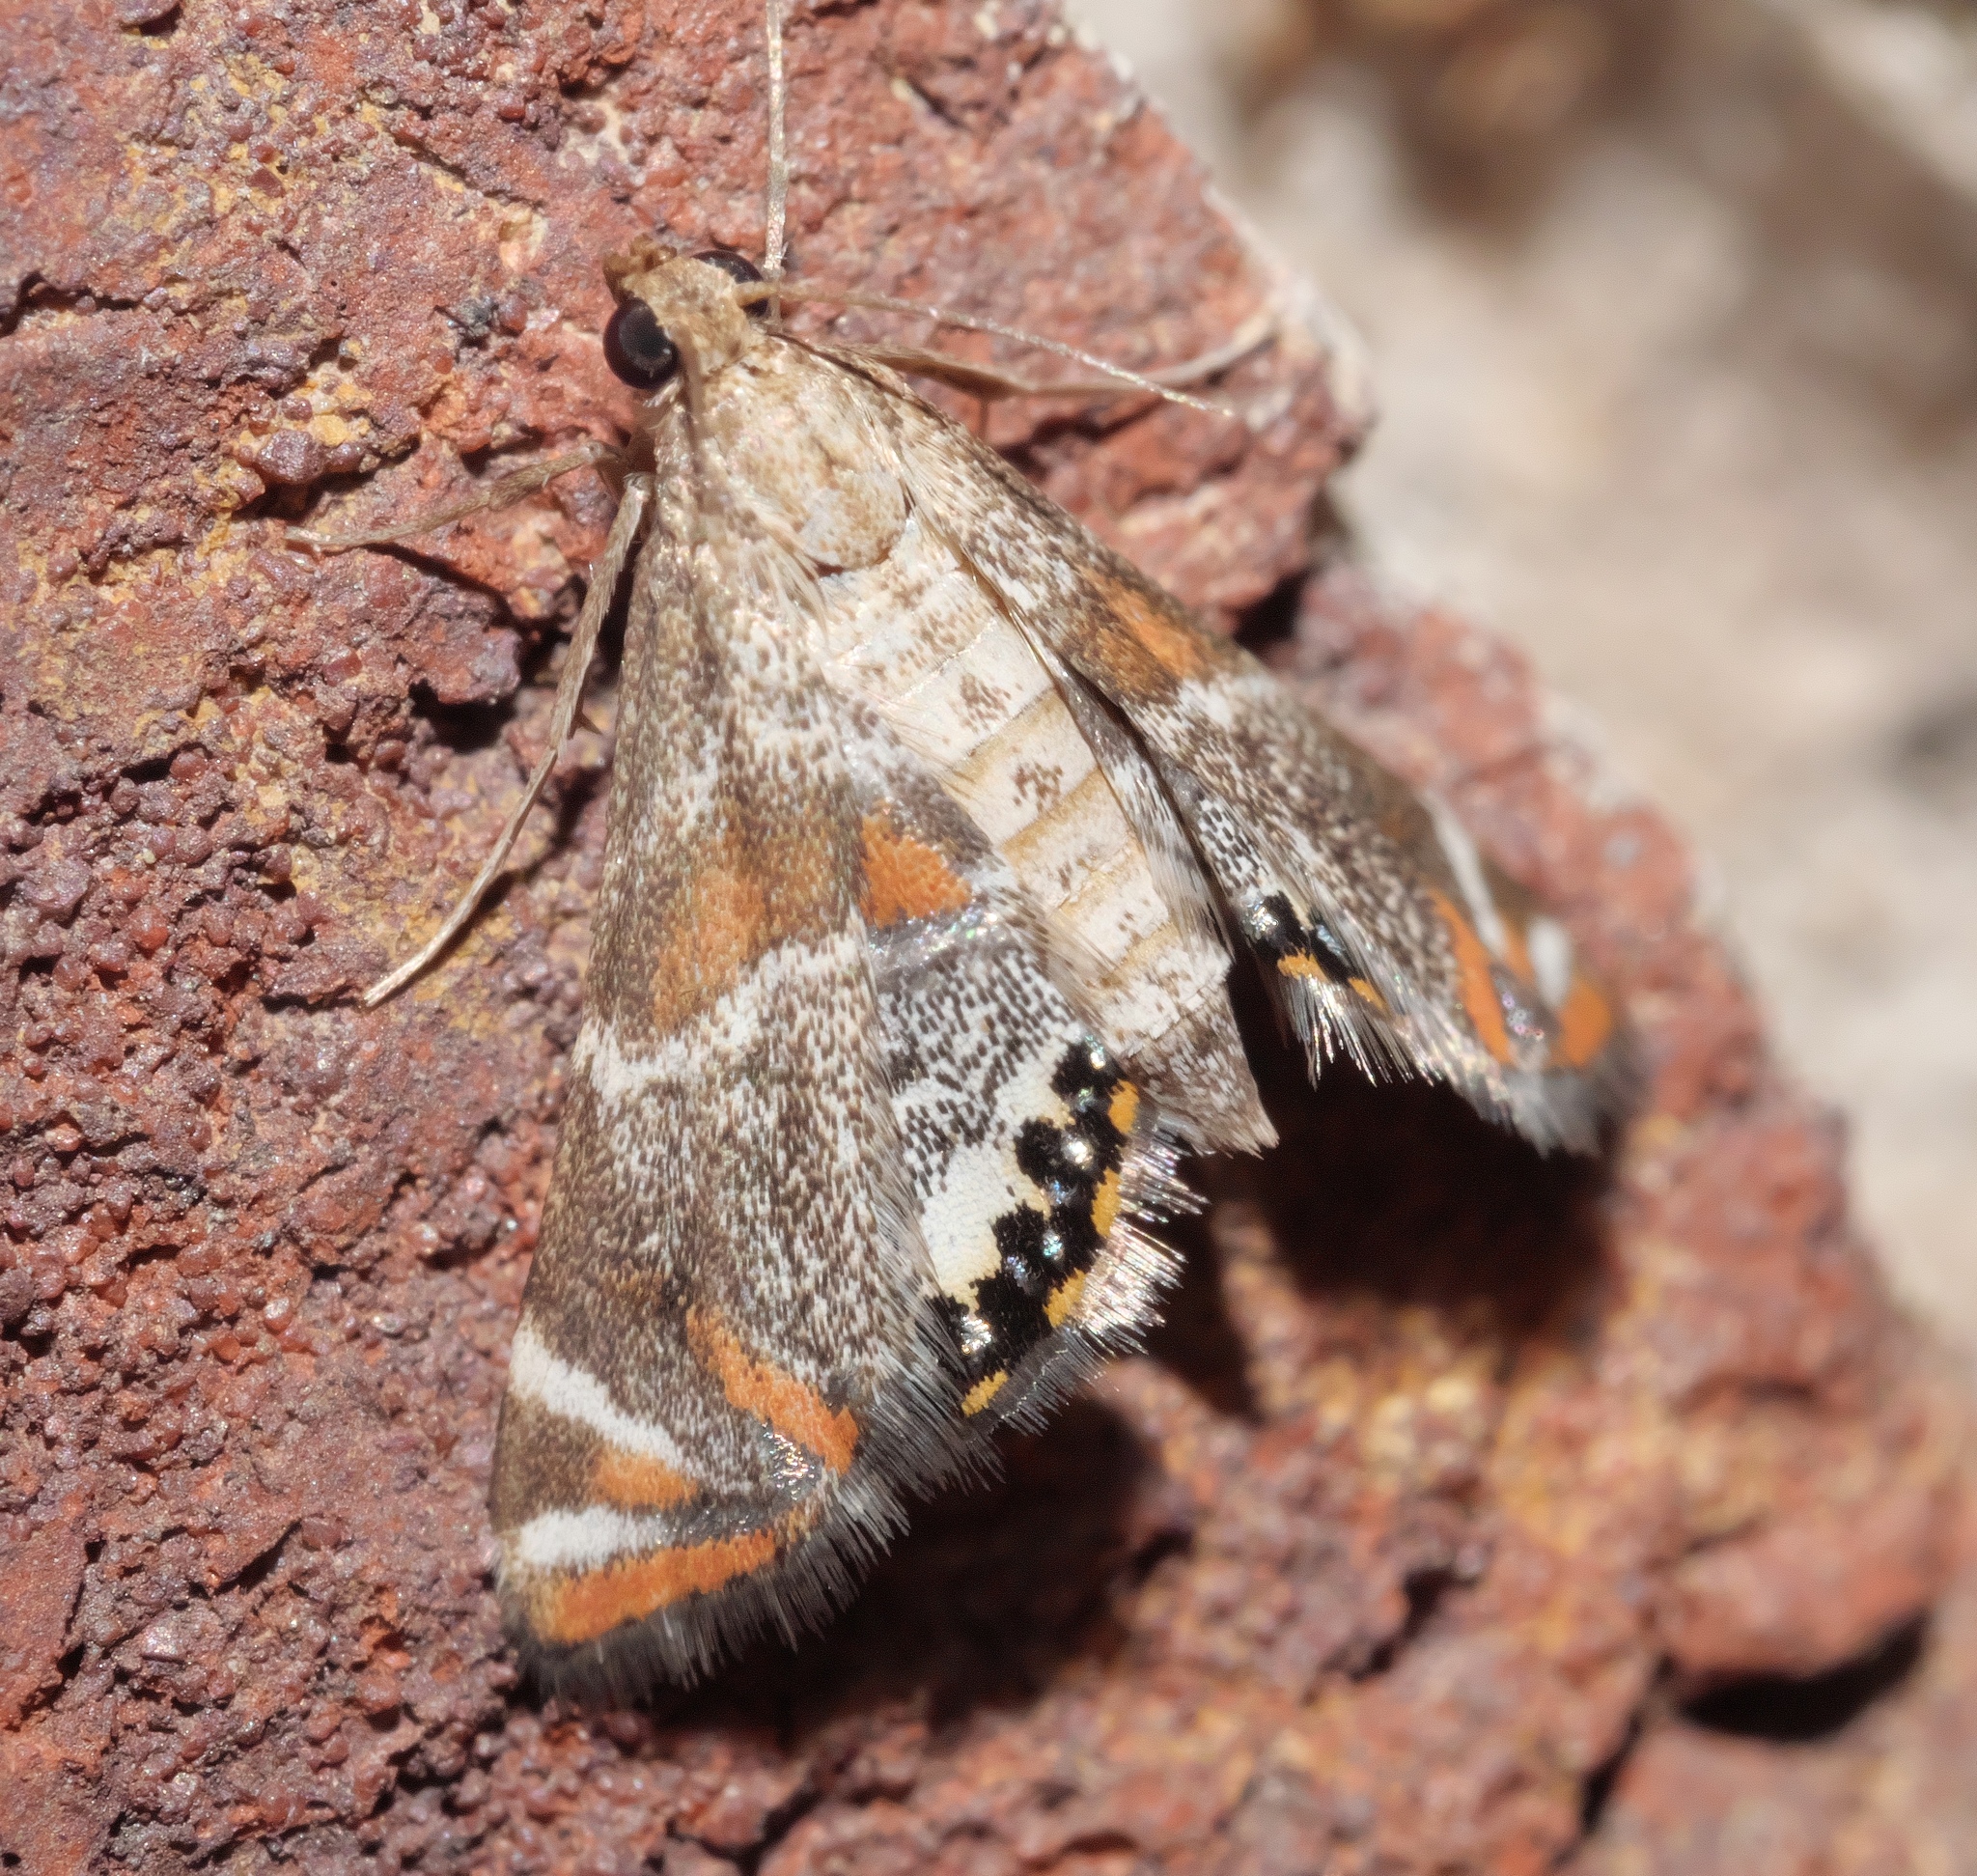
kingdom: Animalia
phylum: Arthropoda
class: Insecta
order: Lepidoptera
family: Crambidae
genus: Petrophila
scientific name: Petrophila jaliscalis
